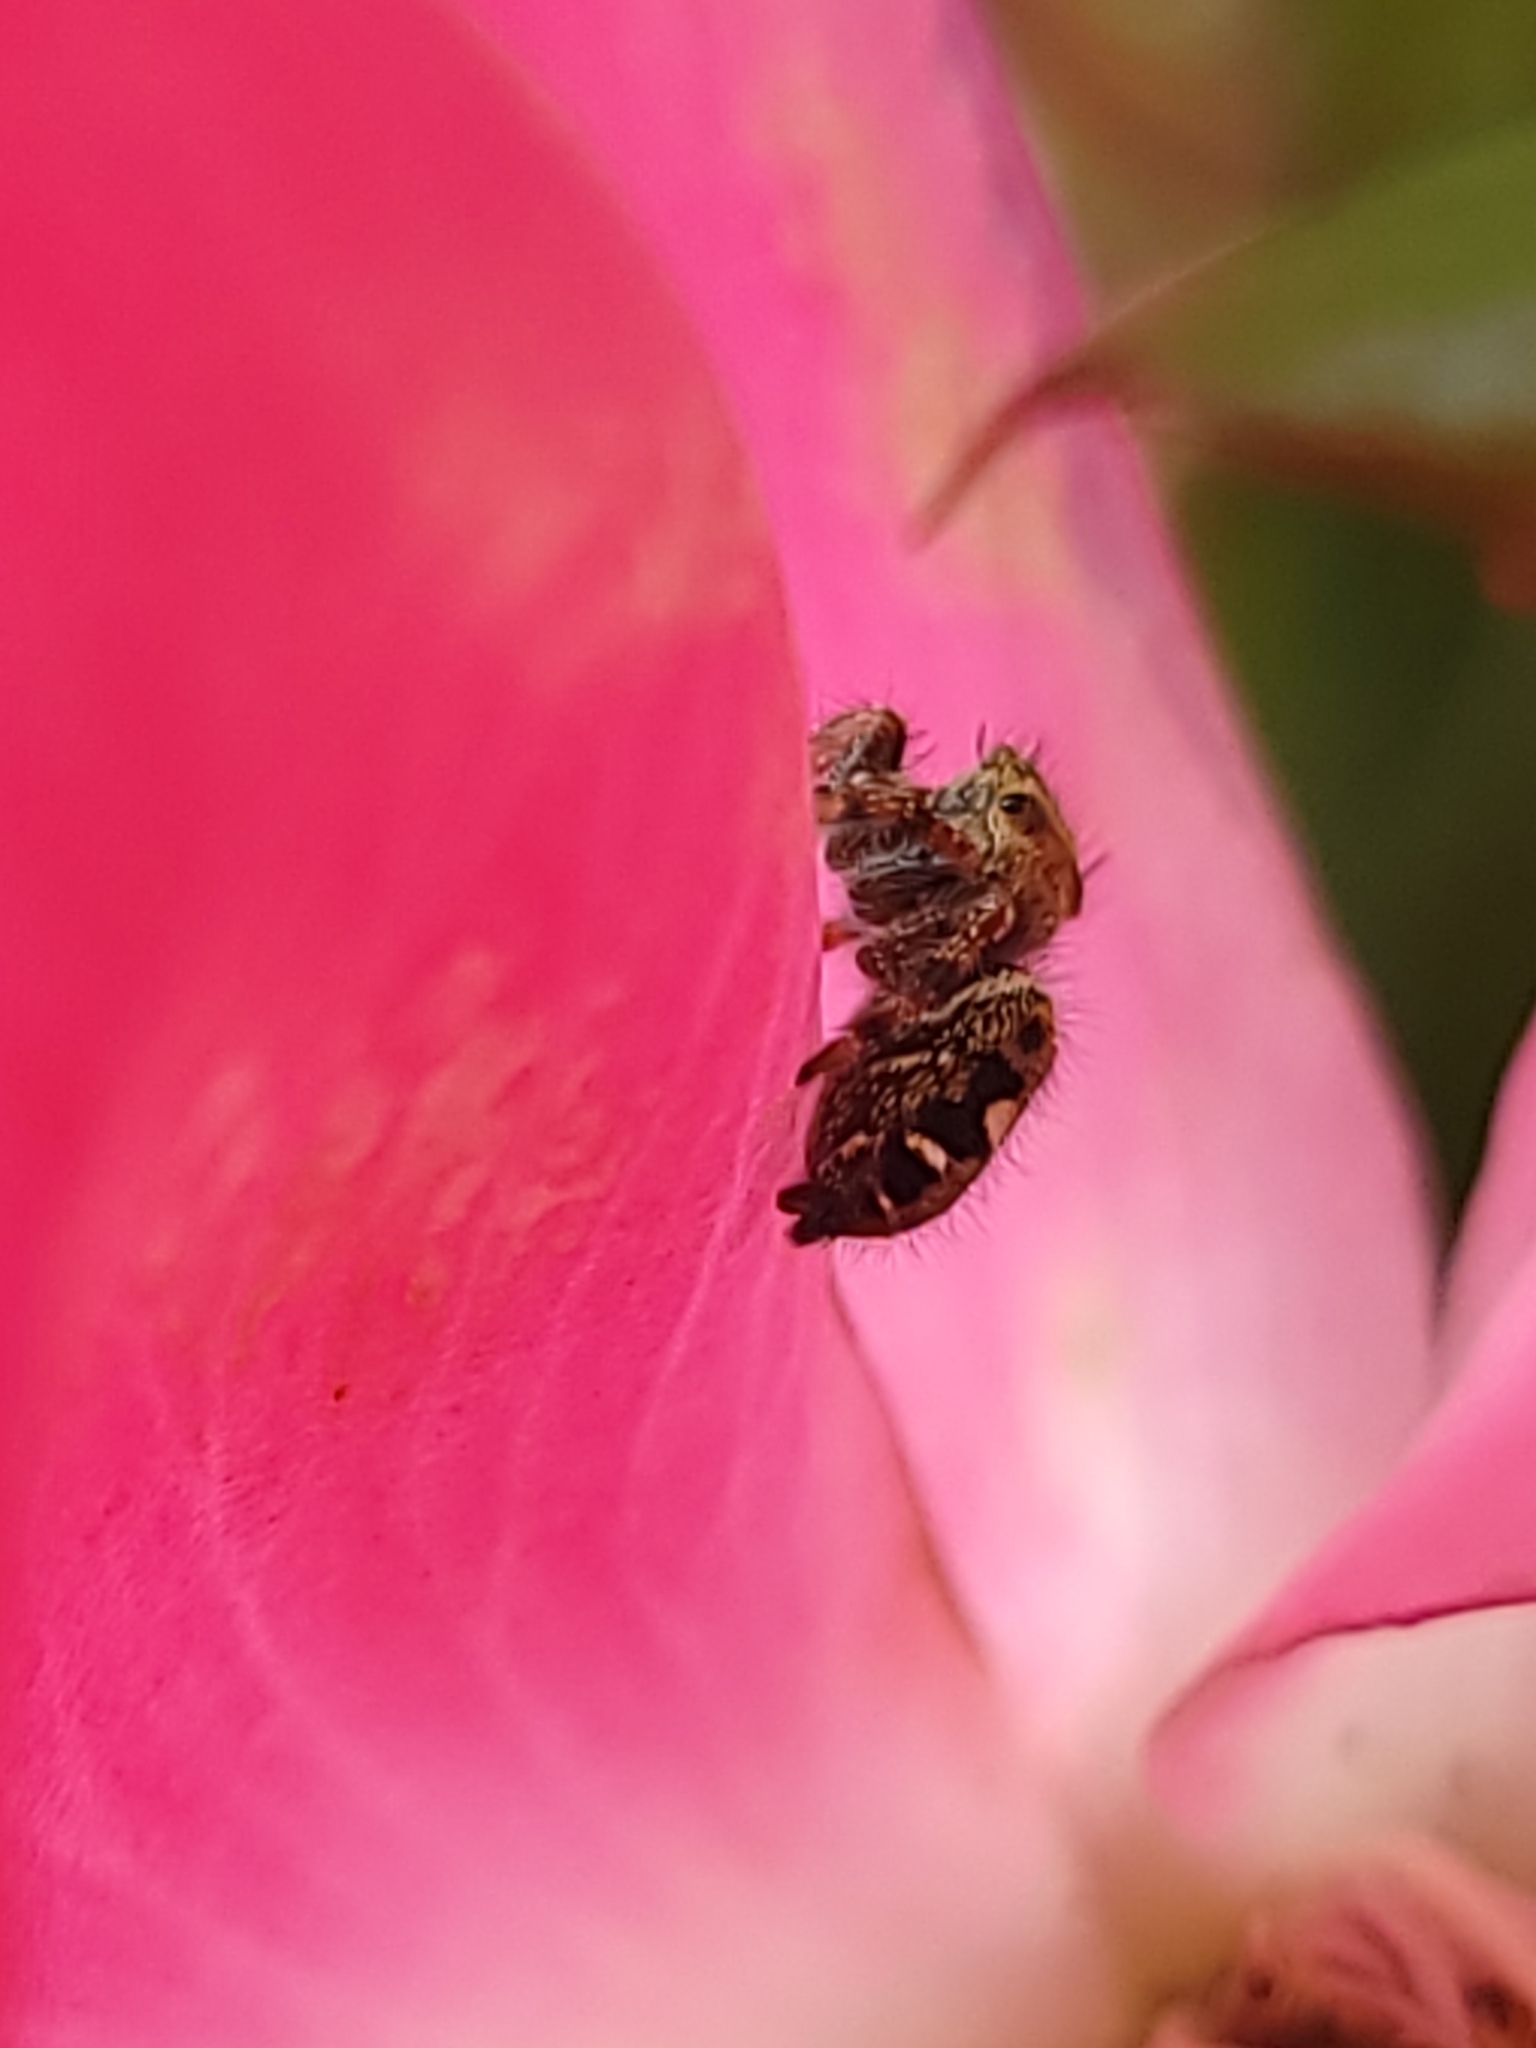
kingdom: Animalia
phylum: Arthropoda
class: Arachnida
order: Araneae
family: Salticidae
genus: Phidippus
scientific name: Phidippus audax
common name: Bold jumper
